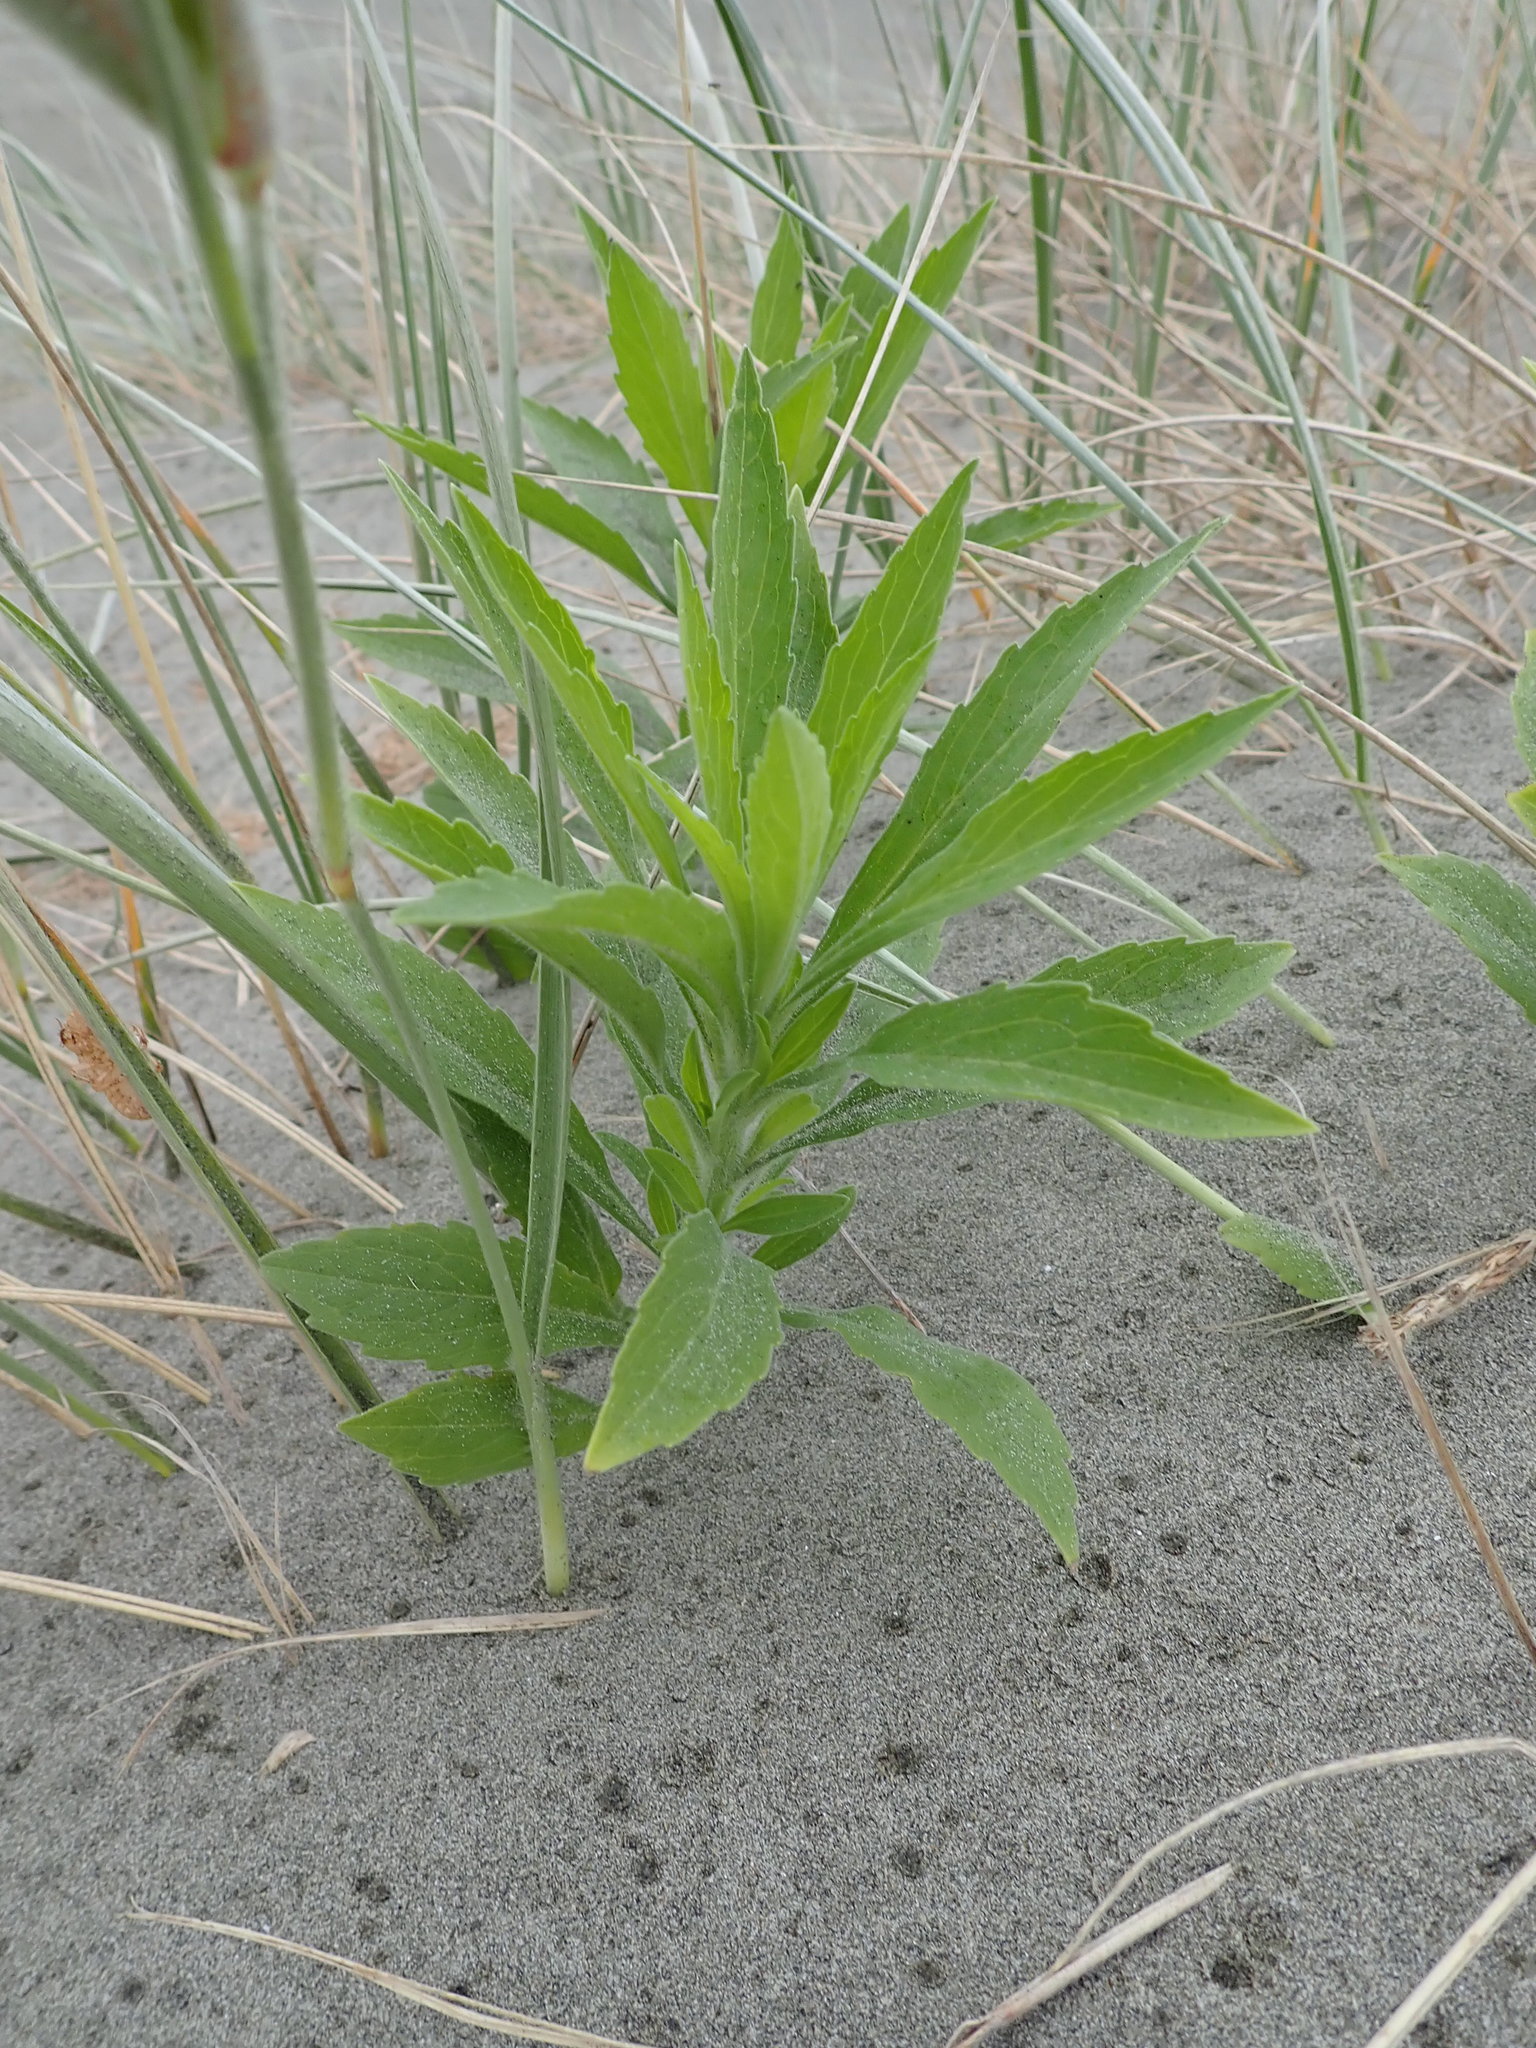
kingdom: Plantae
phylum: Tracheophyta
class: Magnoliopsida
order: Asterales
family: Asteraceae
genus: Erigeron
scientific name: Erigeron sumatrensis
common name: Daisy
